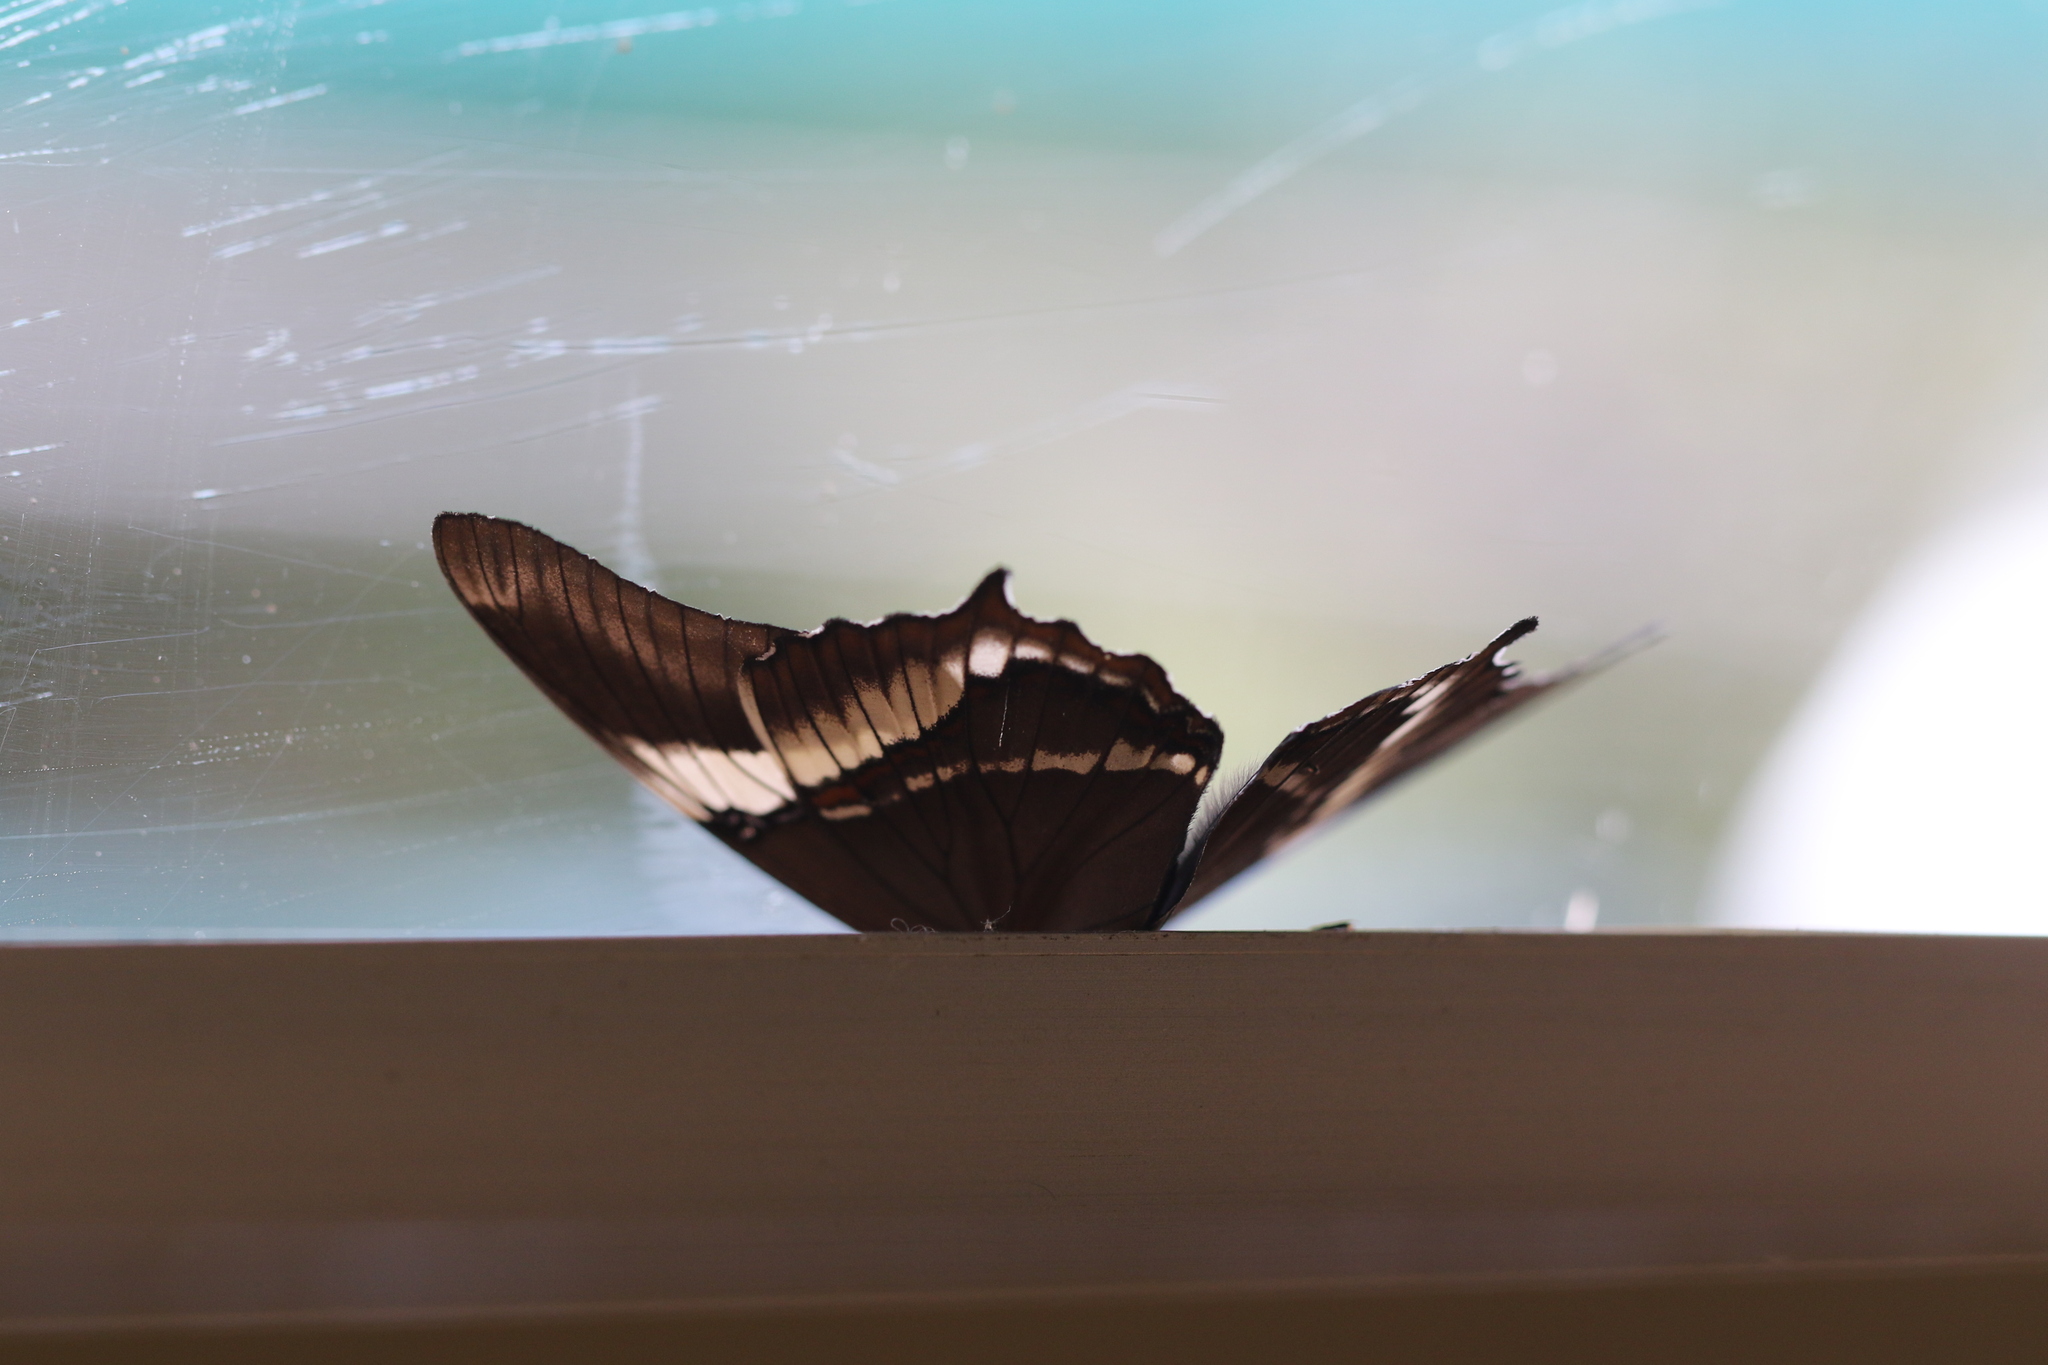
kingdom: Animalia
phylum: Arthropoda
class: Insecta
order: Lepidoptera
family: Nymphalidae
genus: Siproeta
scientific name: Siproeta epaphus
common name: Rusty-tipped page
